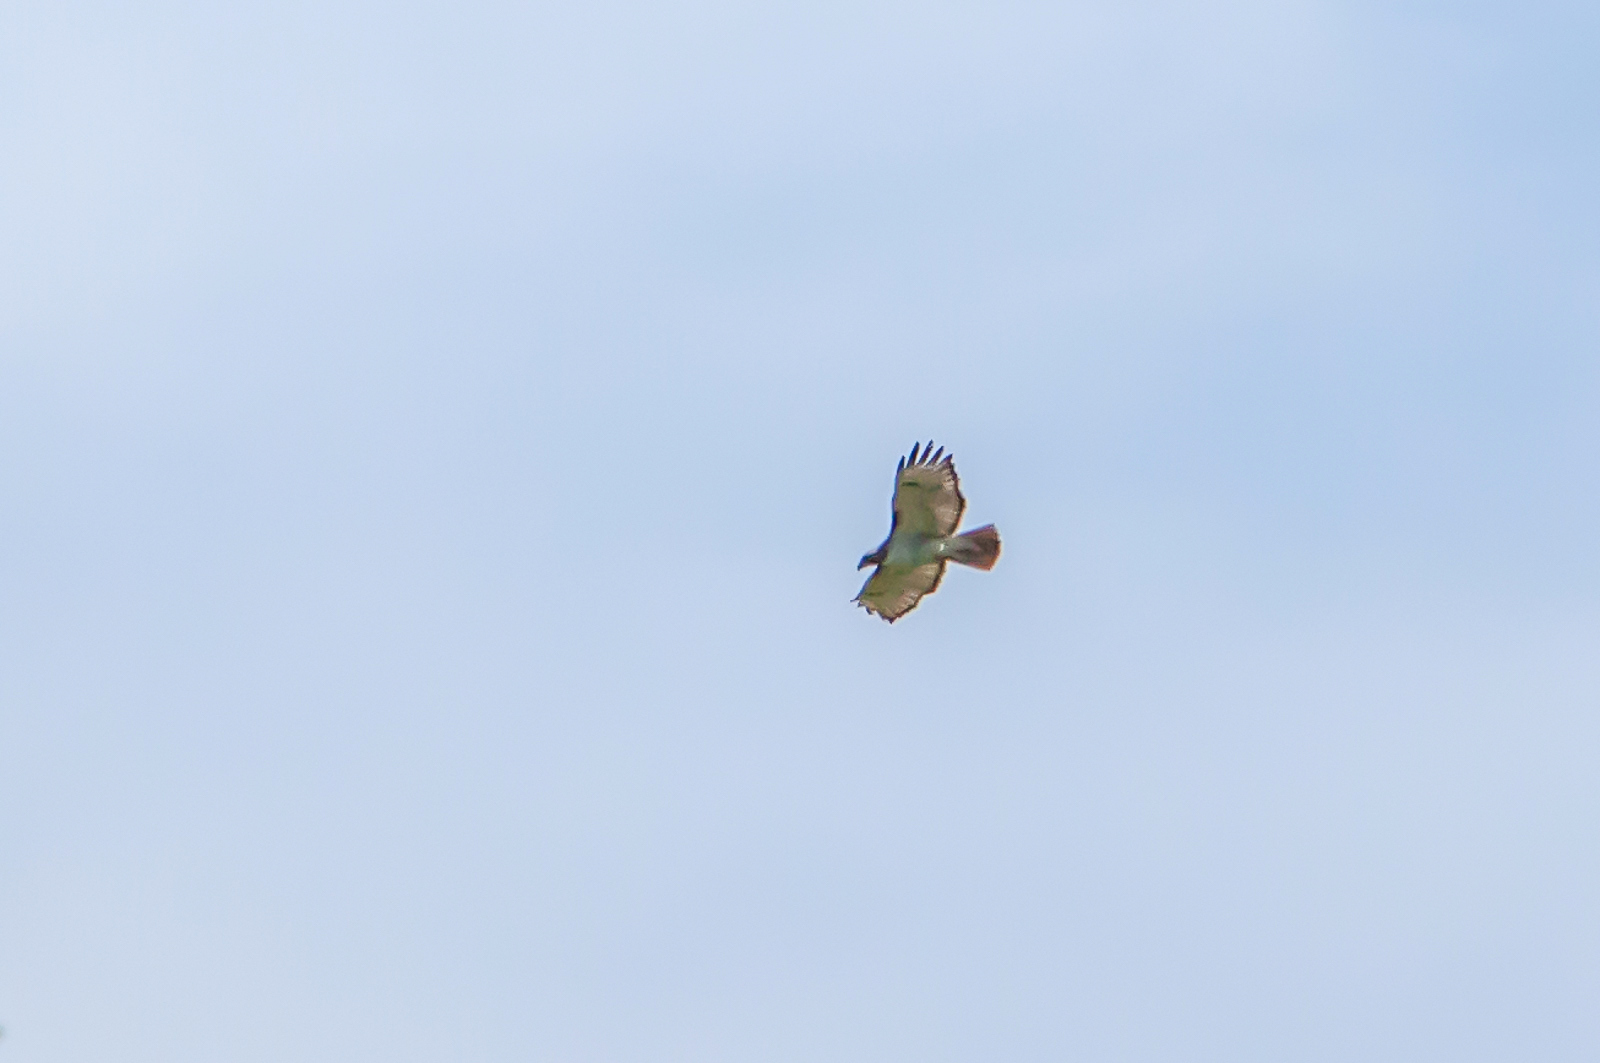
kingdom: Animalia
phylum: Chordata
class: Aves
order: Accipitriformes
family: Accipitridae
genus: Buteo
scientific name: Buteo jamaicensis
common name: Red-tailed hawk
